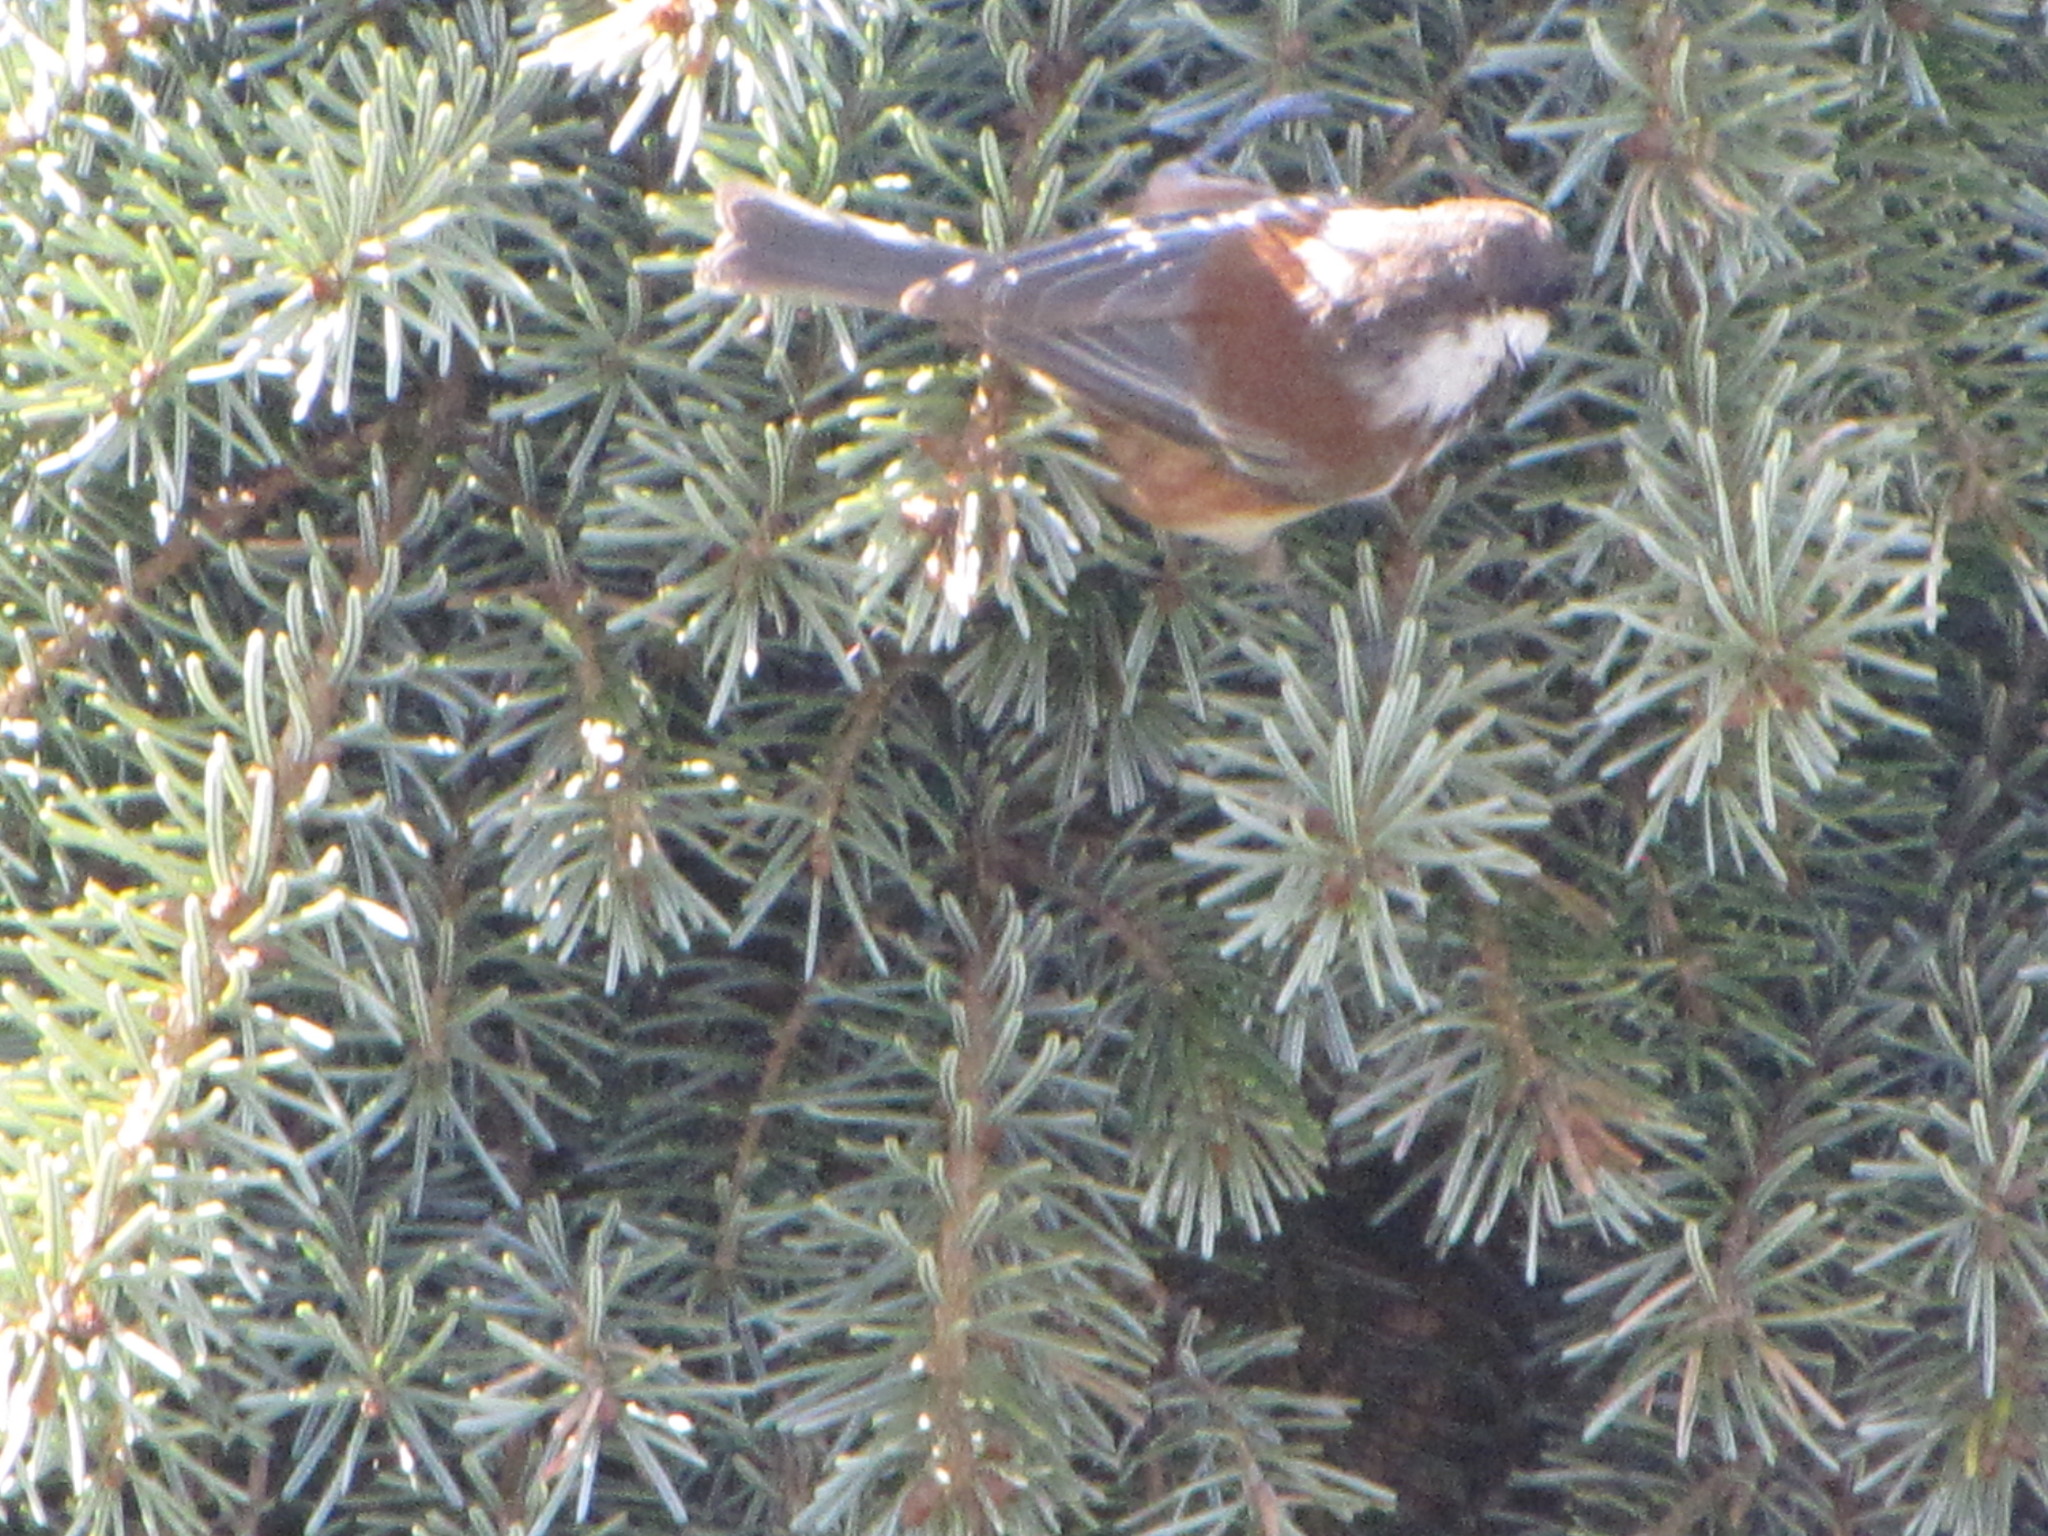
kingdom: Animalia
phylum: Chordata
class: Aves
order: Passeriformes
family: Paridae
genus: Poecile
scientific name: Poecile rufescens
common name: Chestnut-backed chickadee
